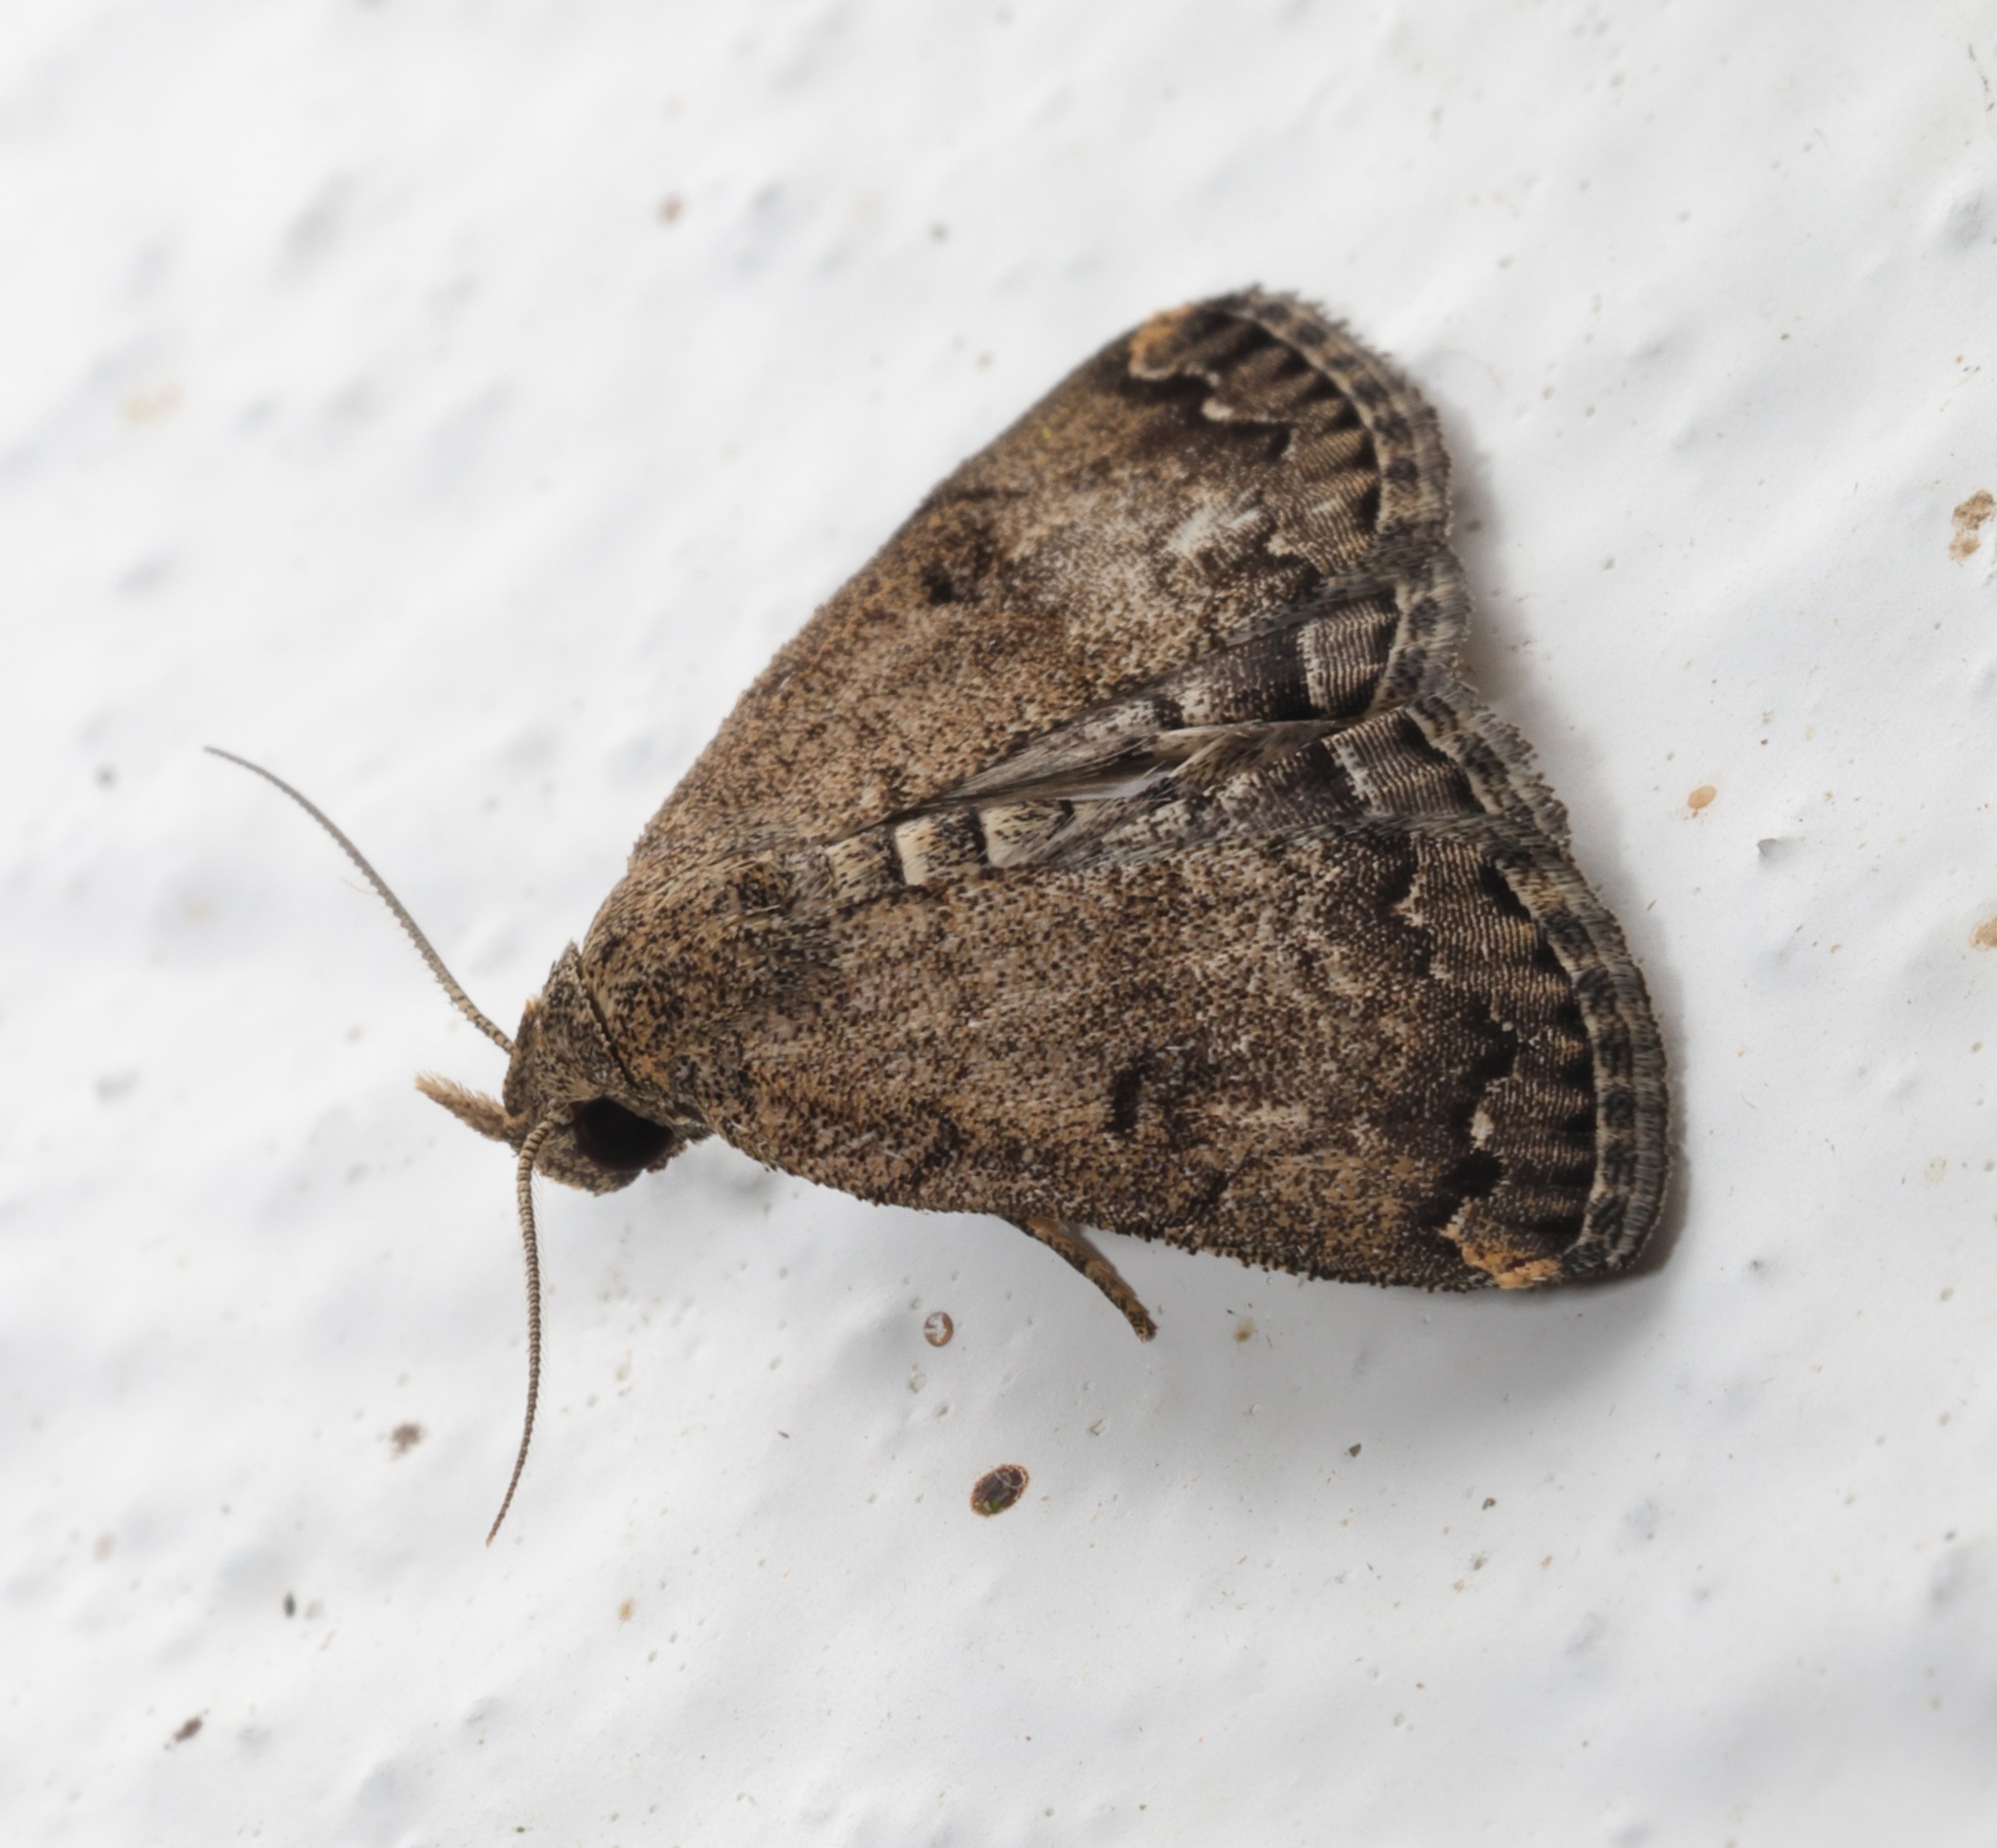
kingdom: Animalia
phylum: Arthropoda
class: Insecta
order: Lepidoptera
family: Erebidae
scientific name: Erebidae
